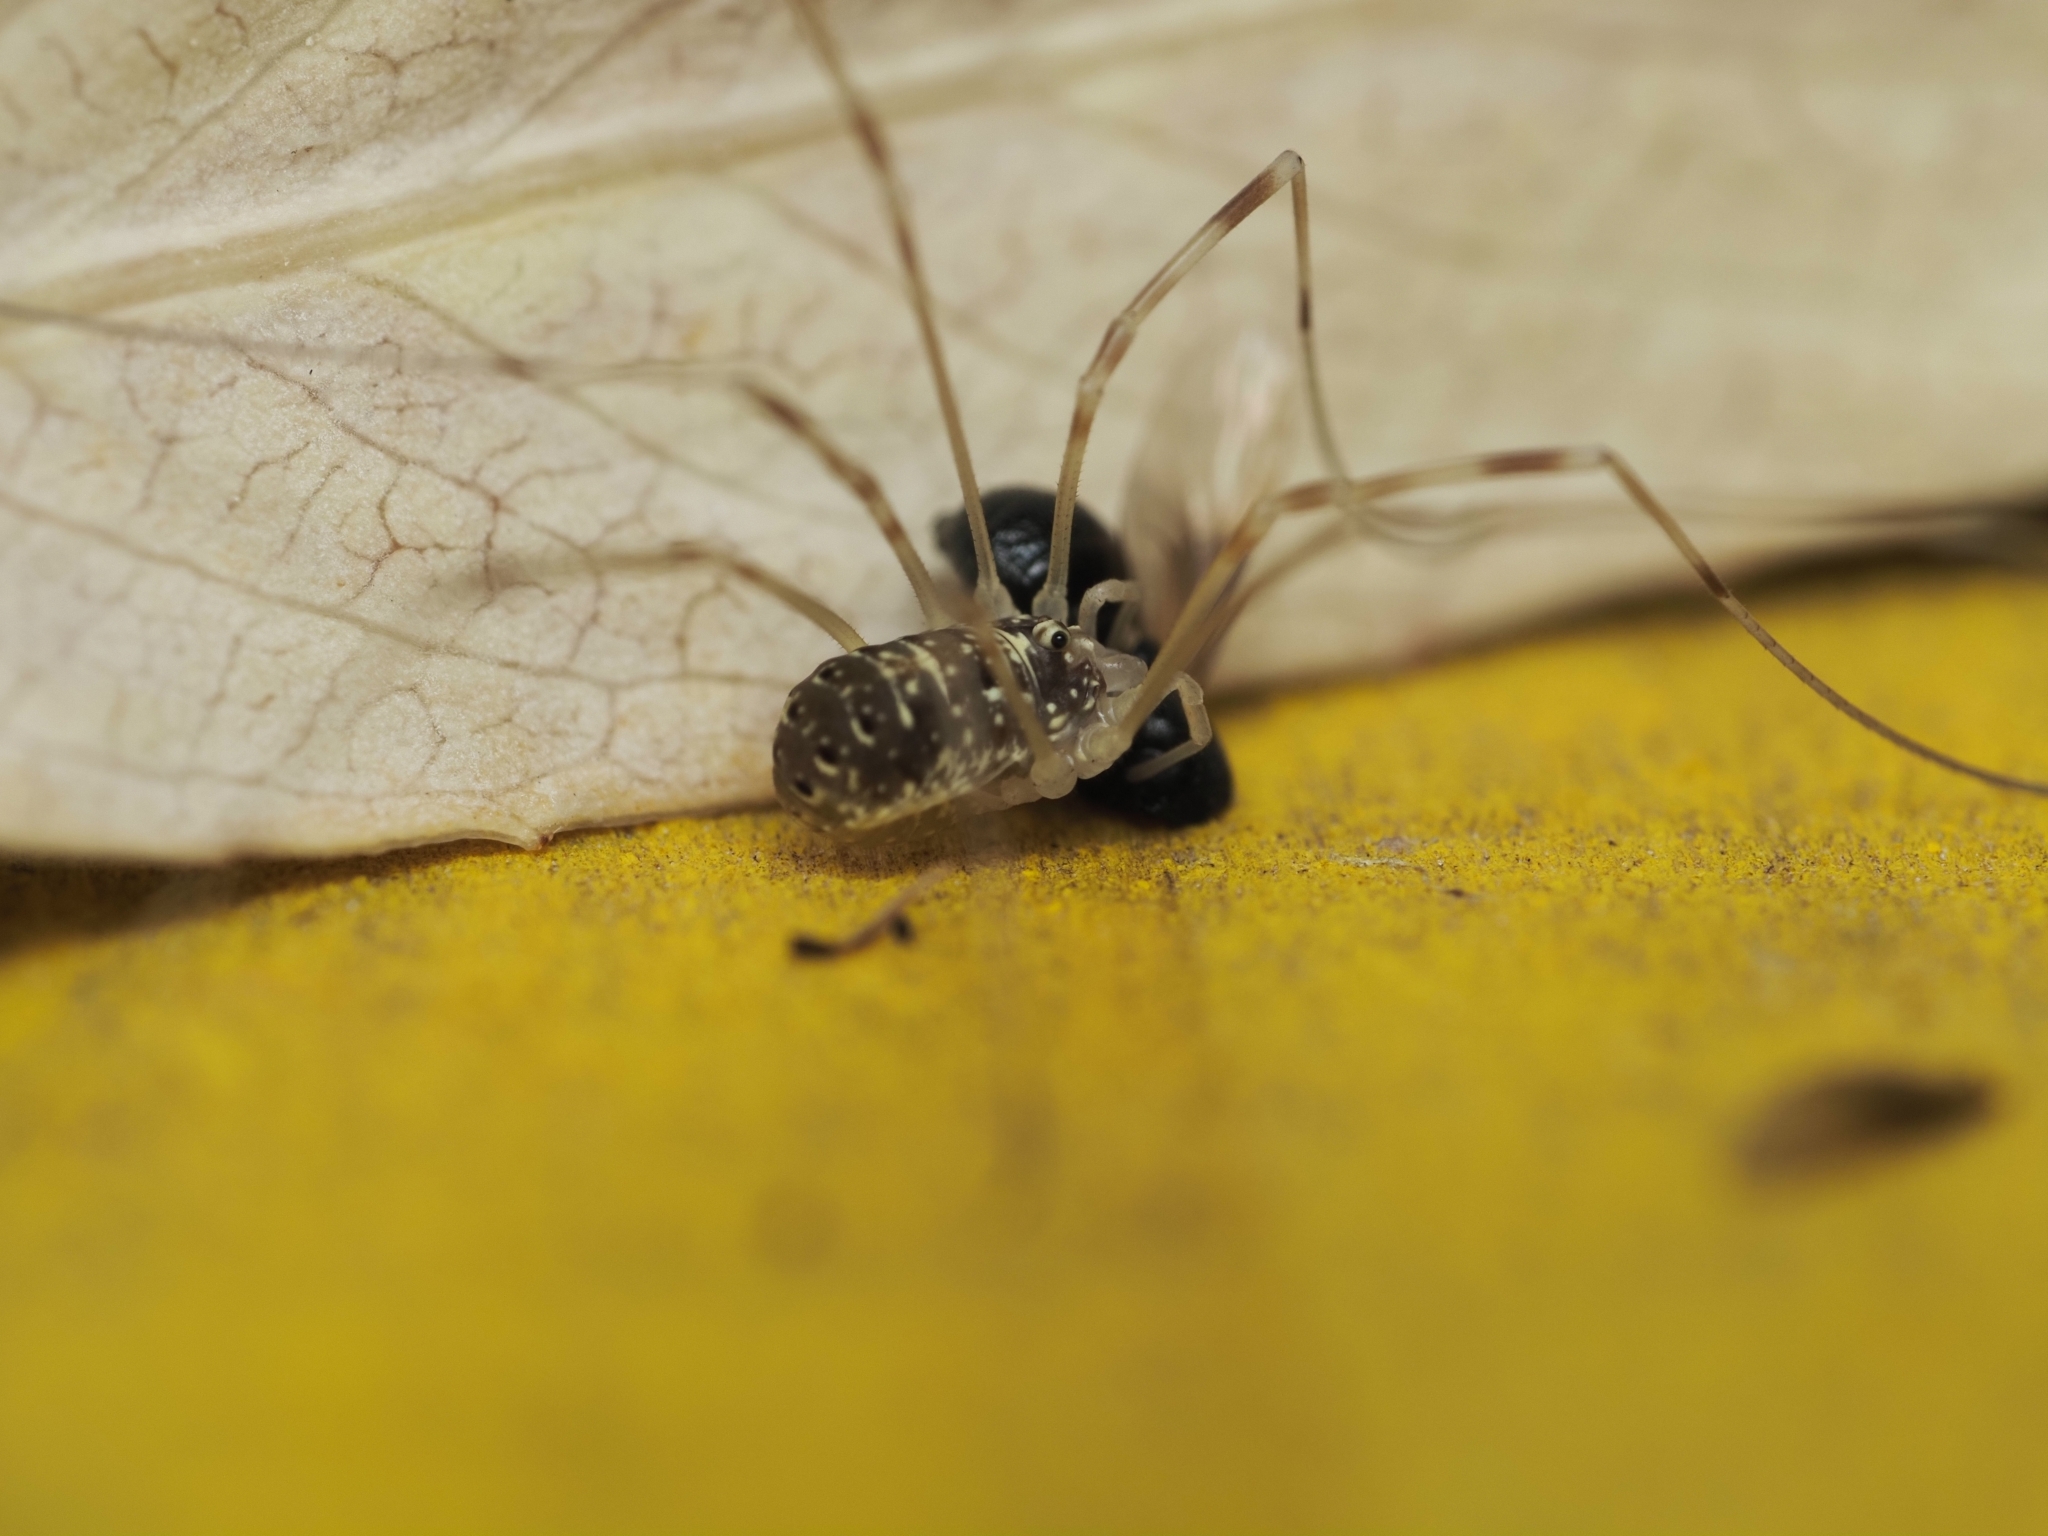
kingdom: Animalia
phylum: Arthropoda
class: Arachnida
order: Opiliones
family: Phalangiidae
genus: Opilio
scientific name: Opilio canestrinii
